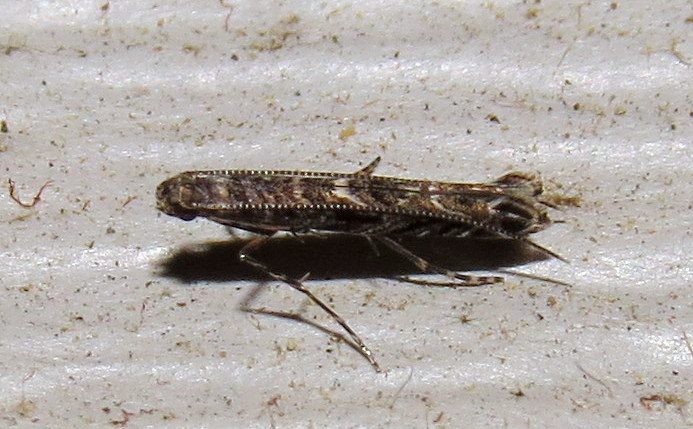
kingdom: Animalia
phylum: Arthropoda
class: Insecta
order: Lepidoptera
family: Gracillariidae
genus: Neurobathra
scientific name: Neurobathra strigifinitella
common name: Finite-channeled leafminer moth
